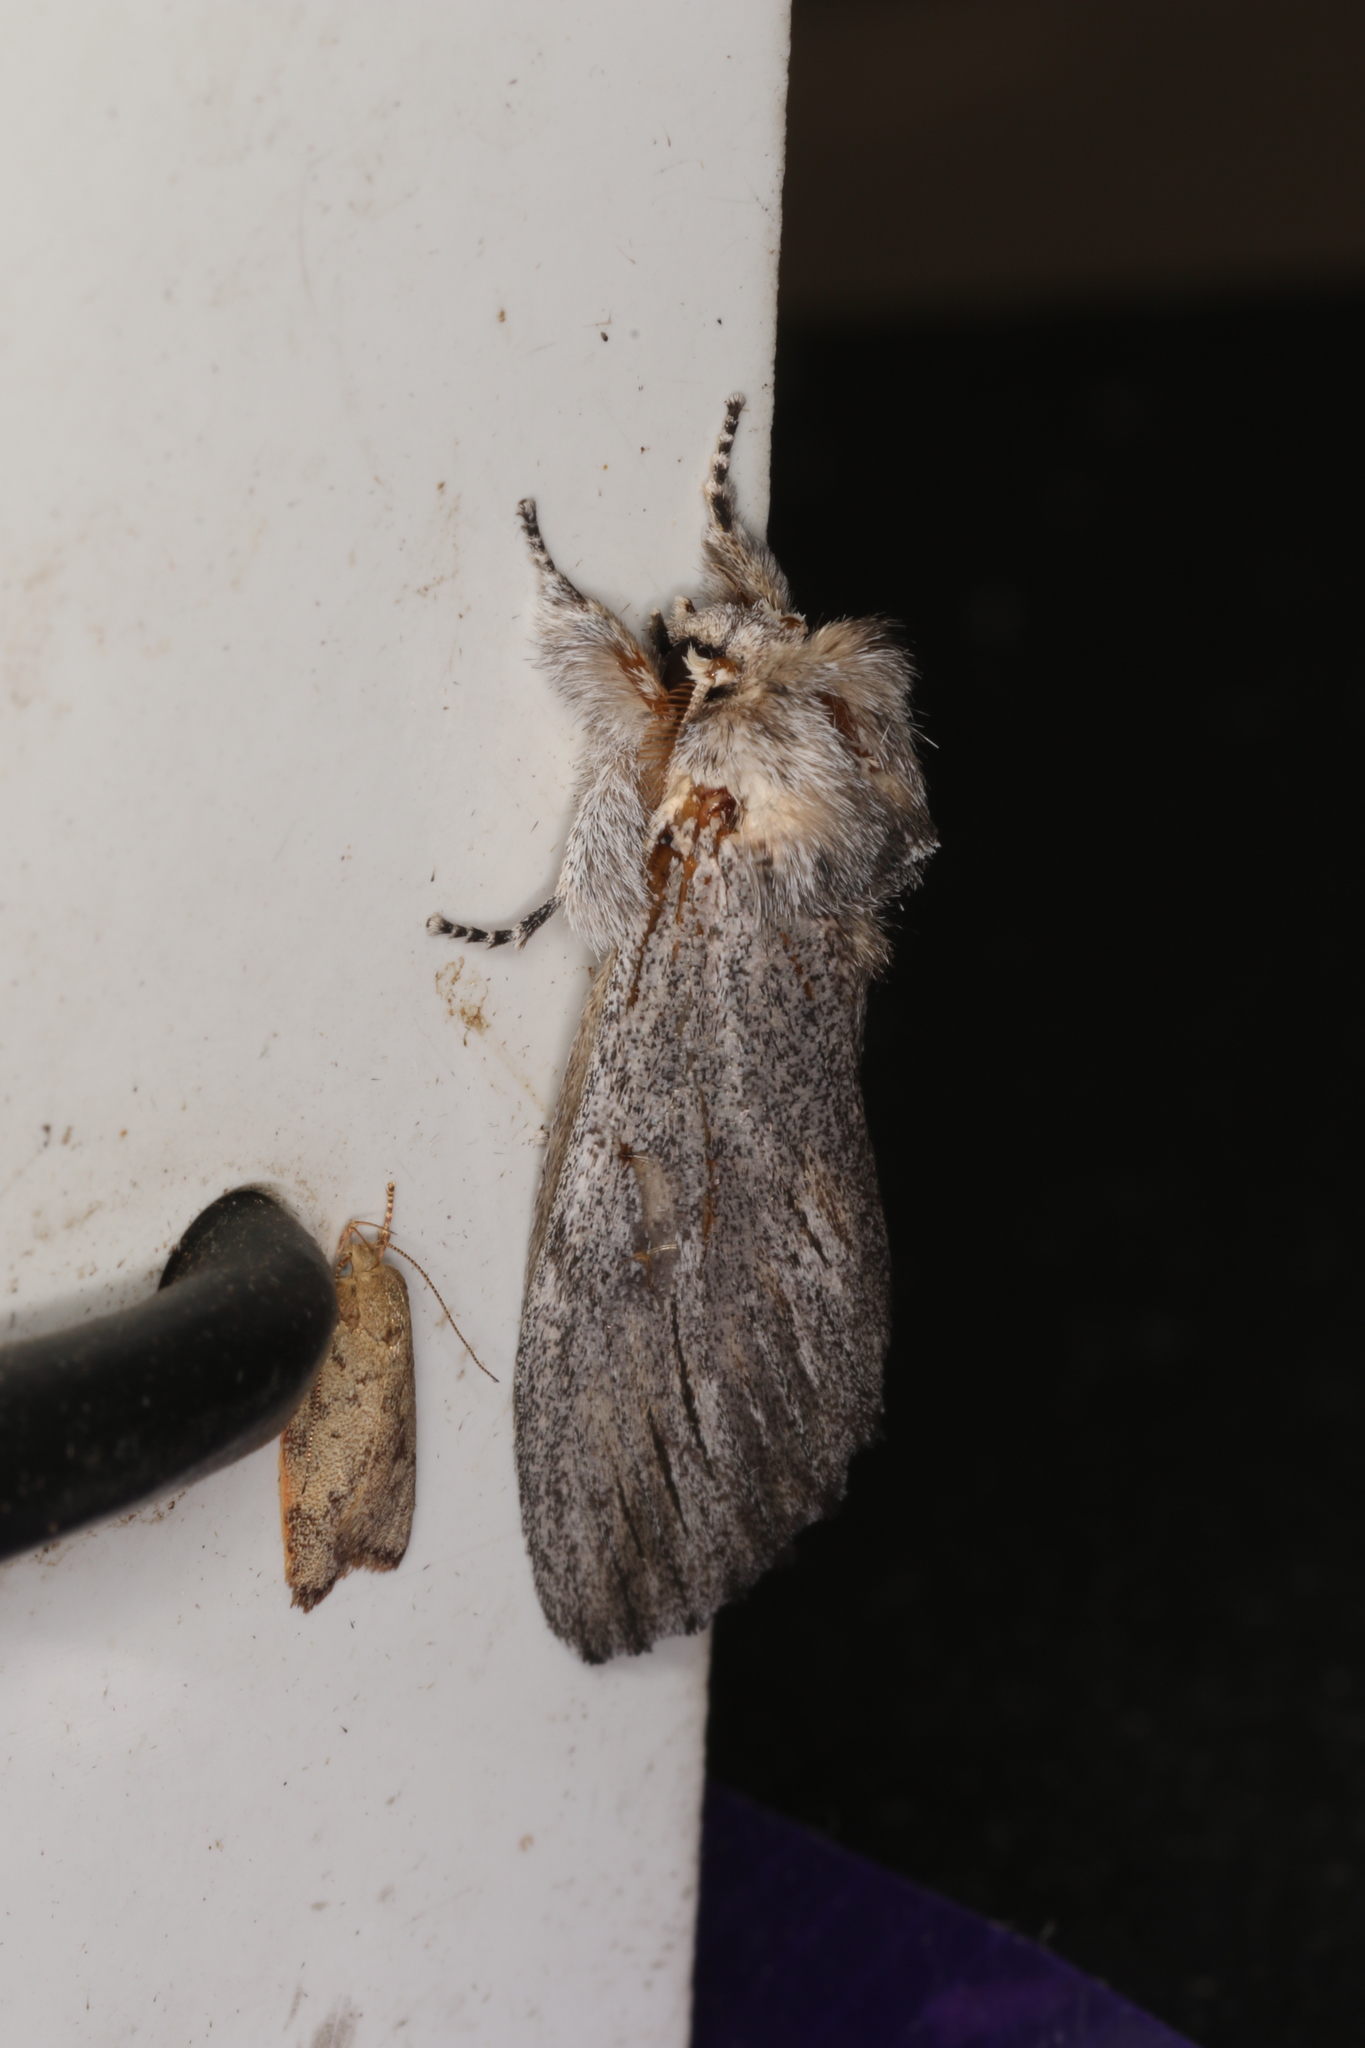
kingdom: Animalia
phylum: Arthropoda
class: Insecta
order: Lepidoptera
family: Notodontidae
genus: Destolmia
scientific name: Destolmia lineata
